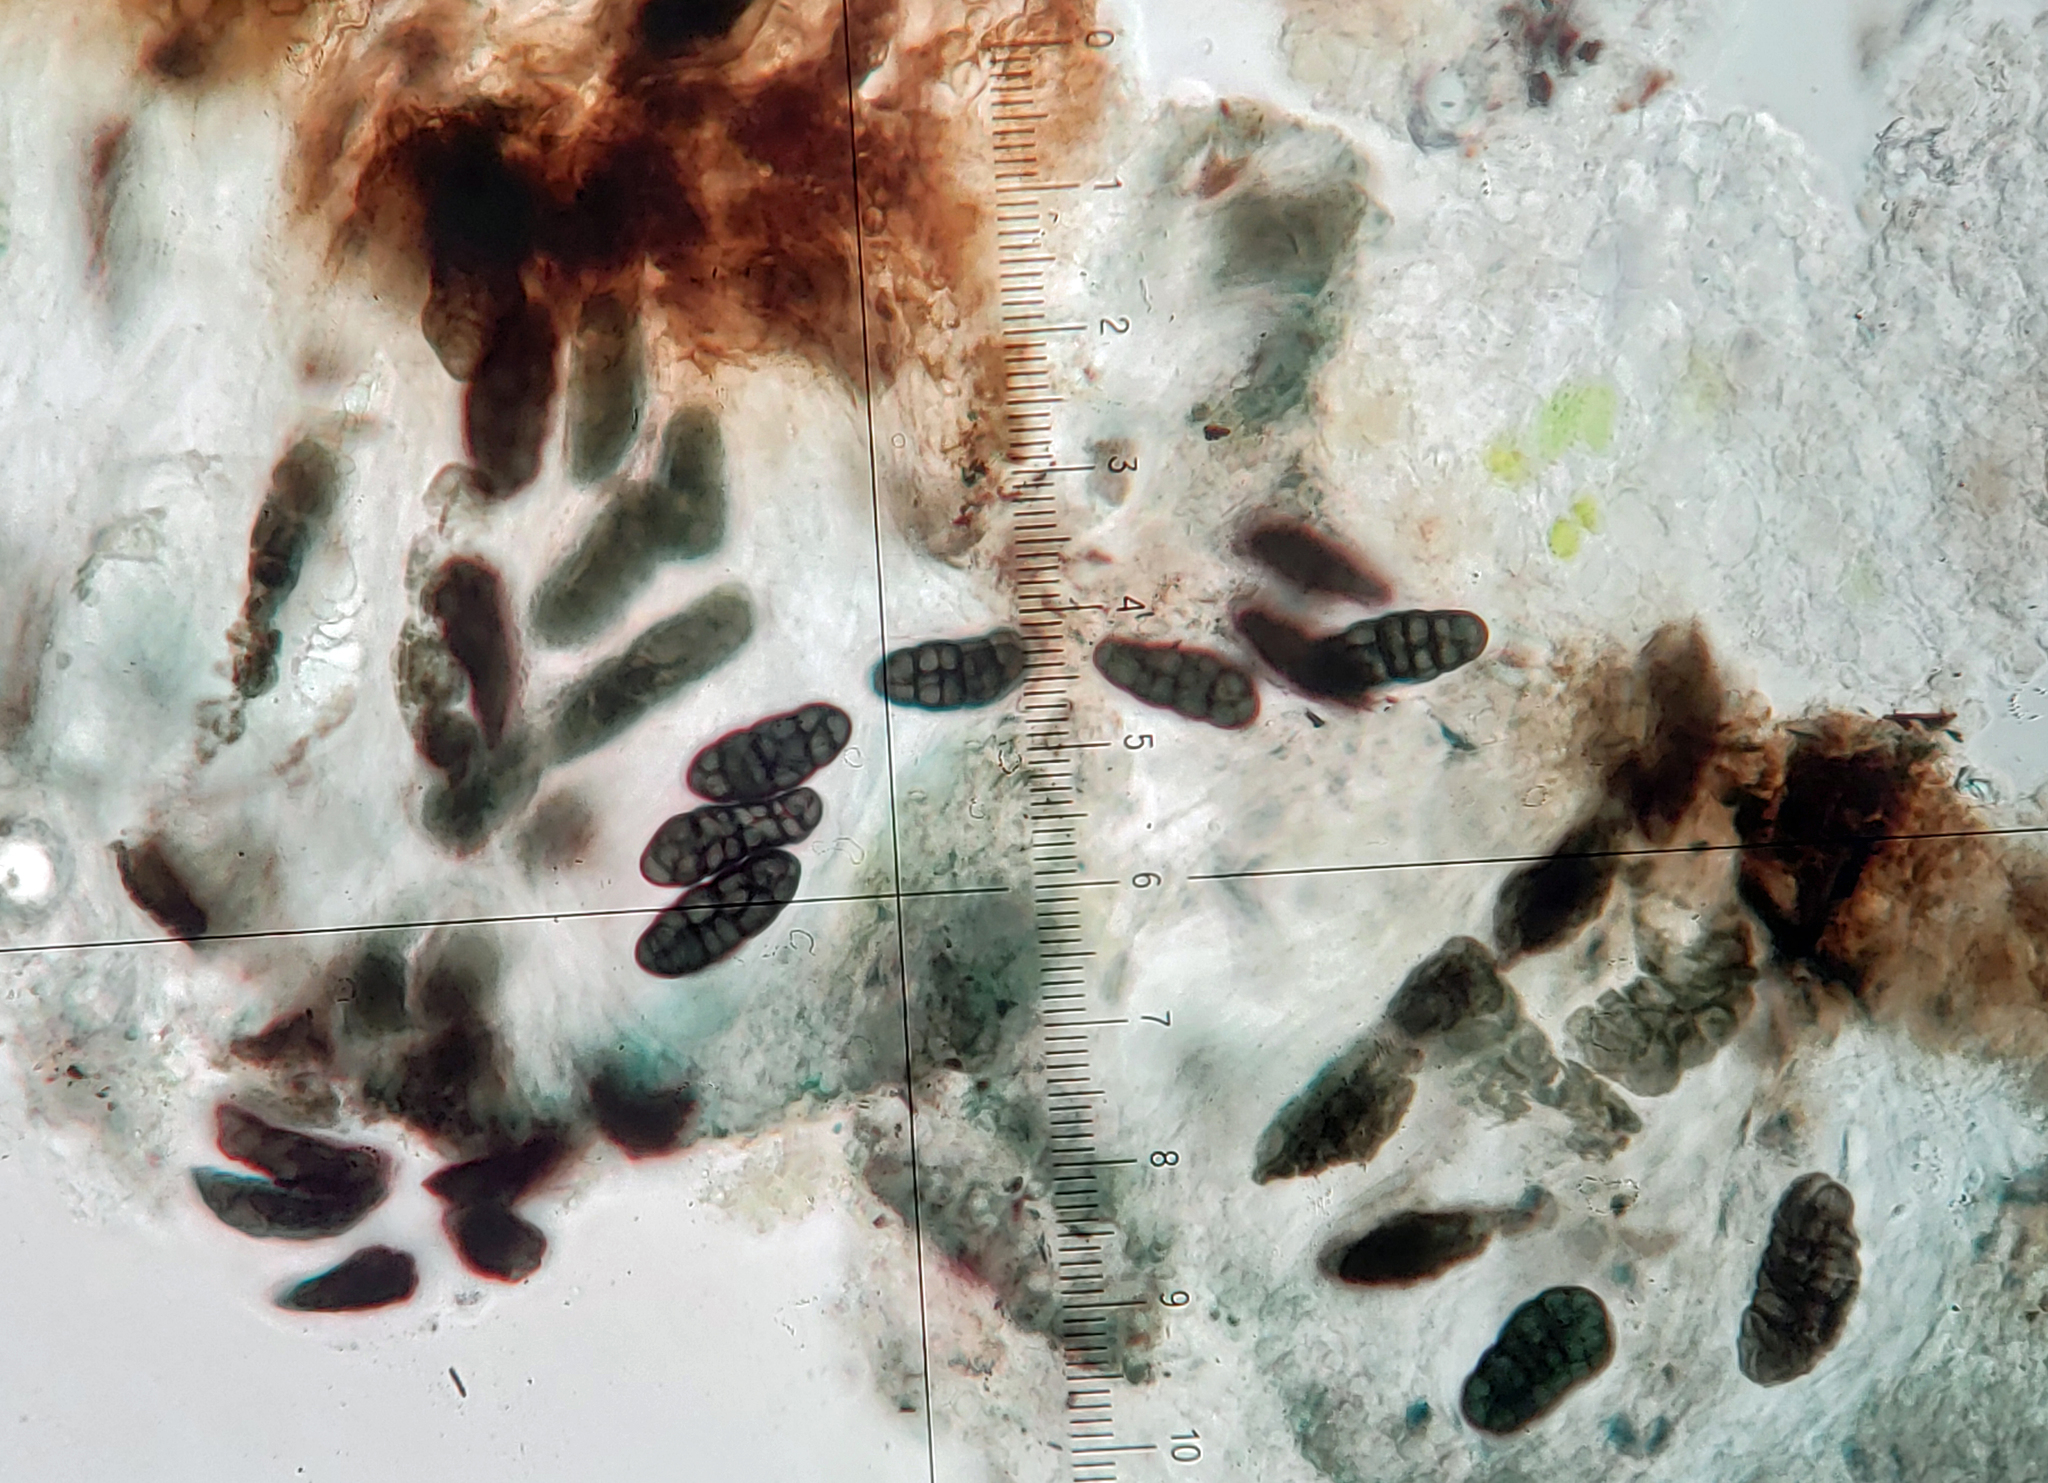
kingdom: Fungi
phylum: Ascomycota
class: Lecanoromycetes
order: Rhizocarpales
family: Rhizocarpaceae
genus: Rhizocarpon
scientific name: Rhizocarpon grande
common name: Big map lichen
